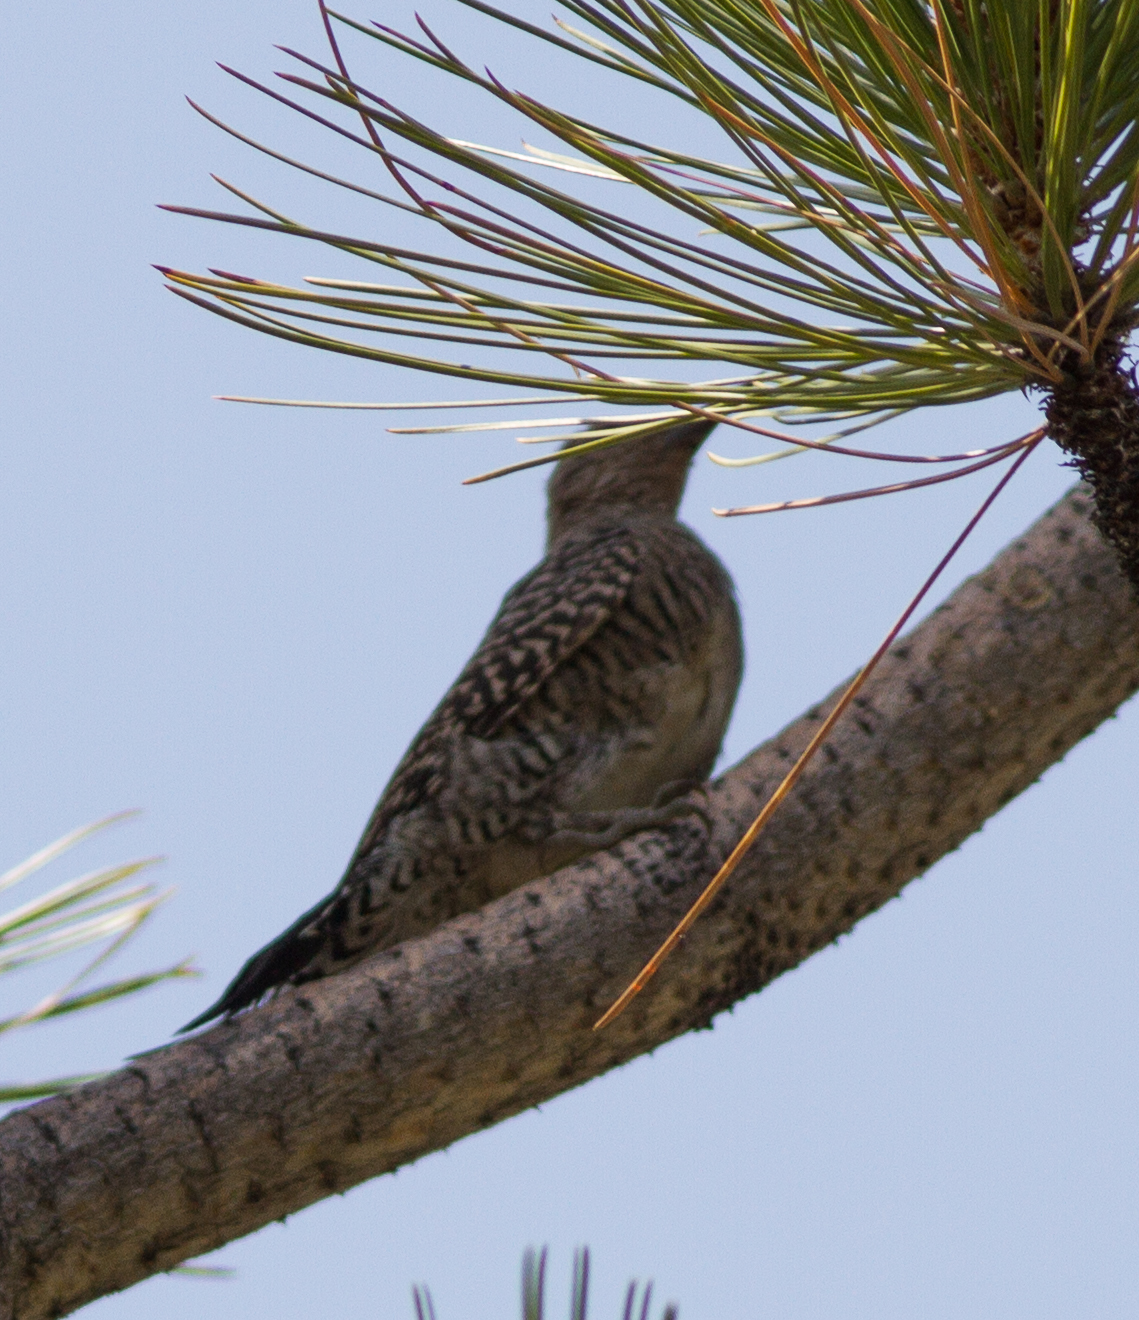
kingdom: Animalia
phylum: Chordata
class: Aves
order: Piciformes
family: Picidae
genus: Sphyrapicus
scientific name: Sphyrapicus thyroideus
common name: Williamson's sapsucker
